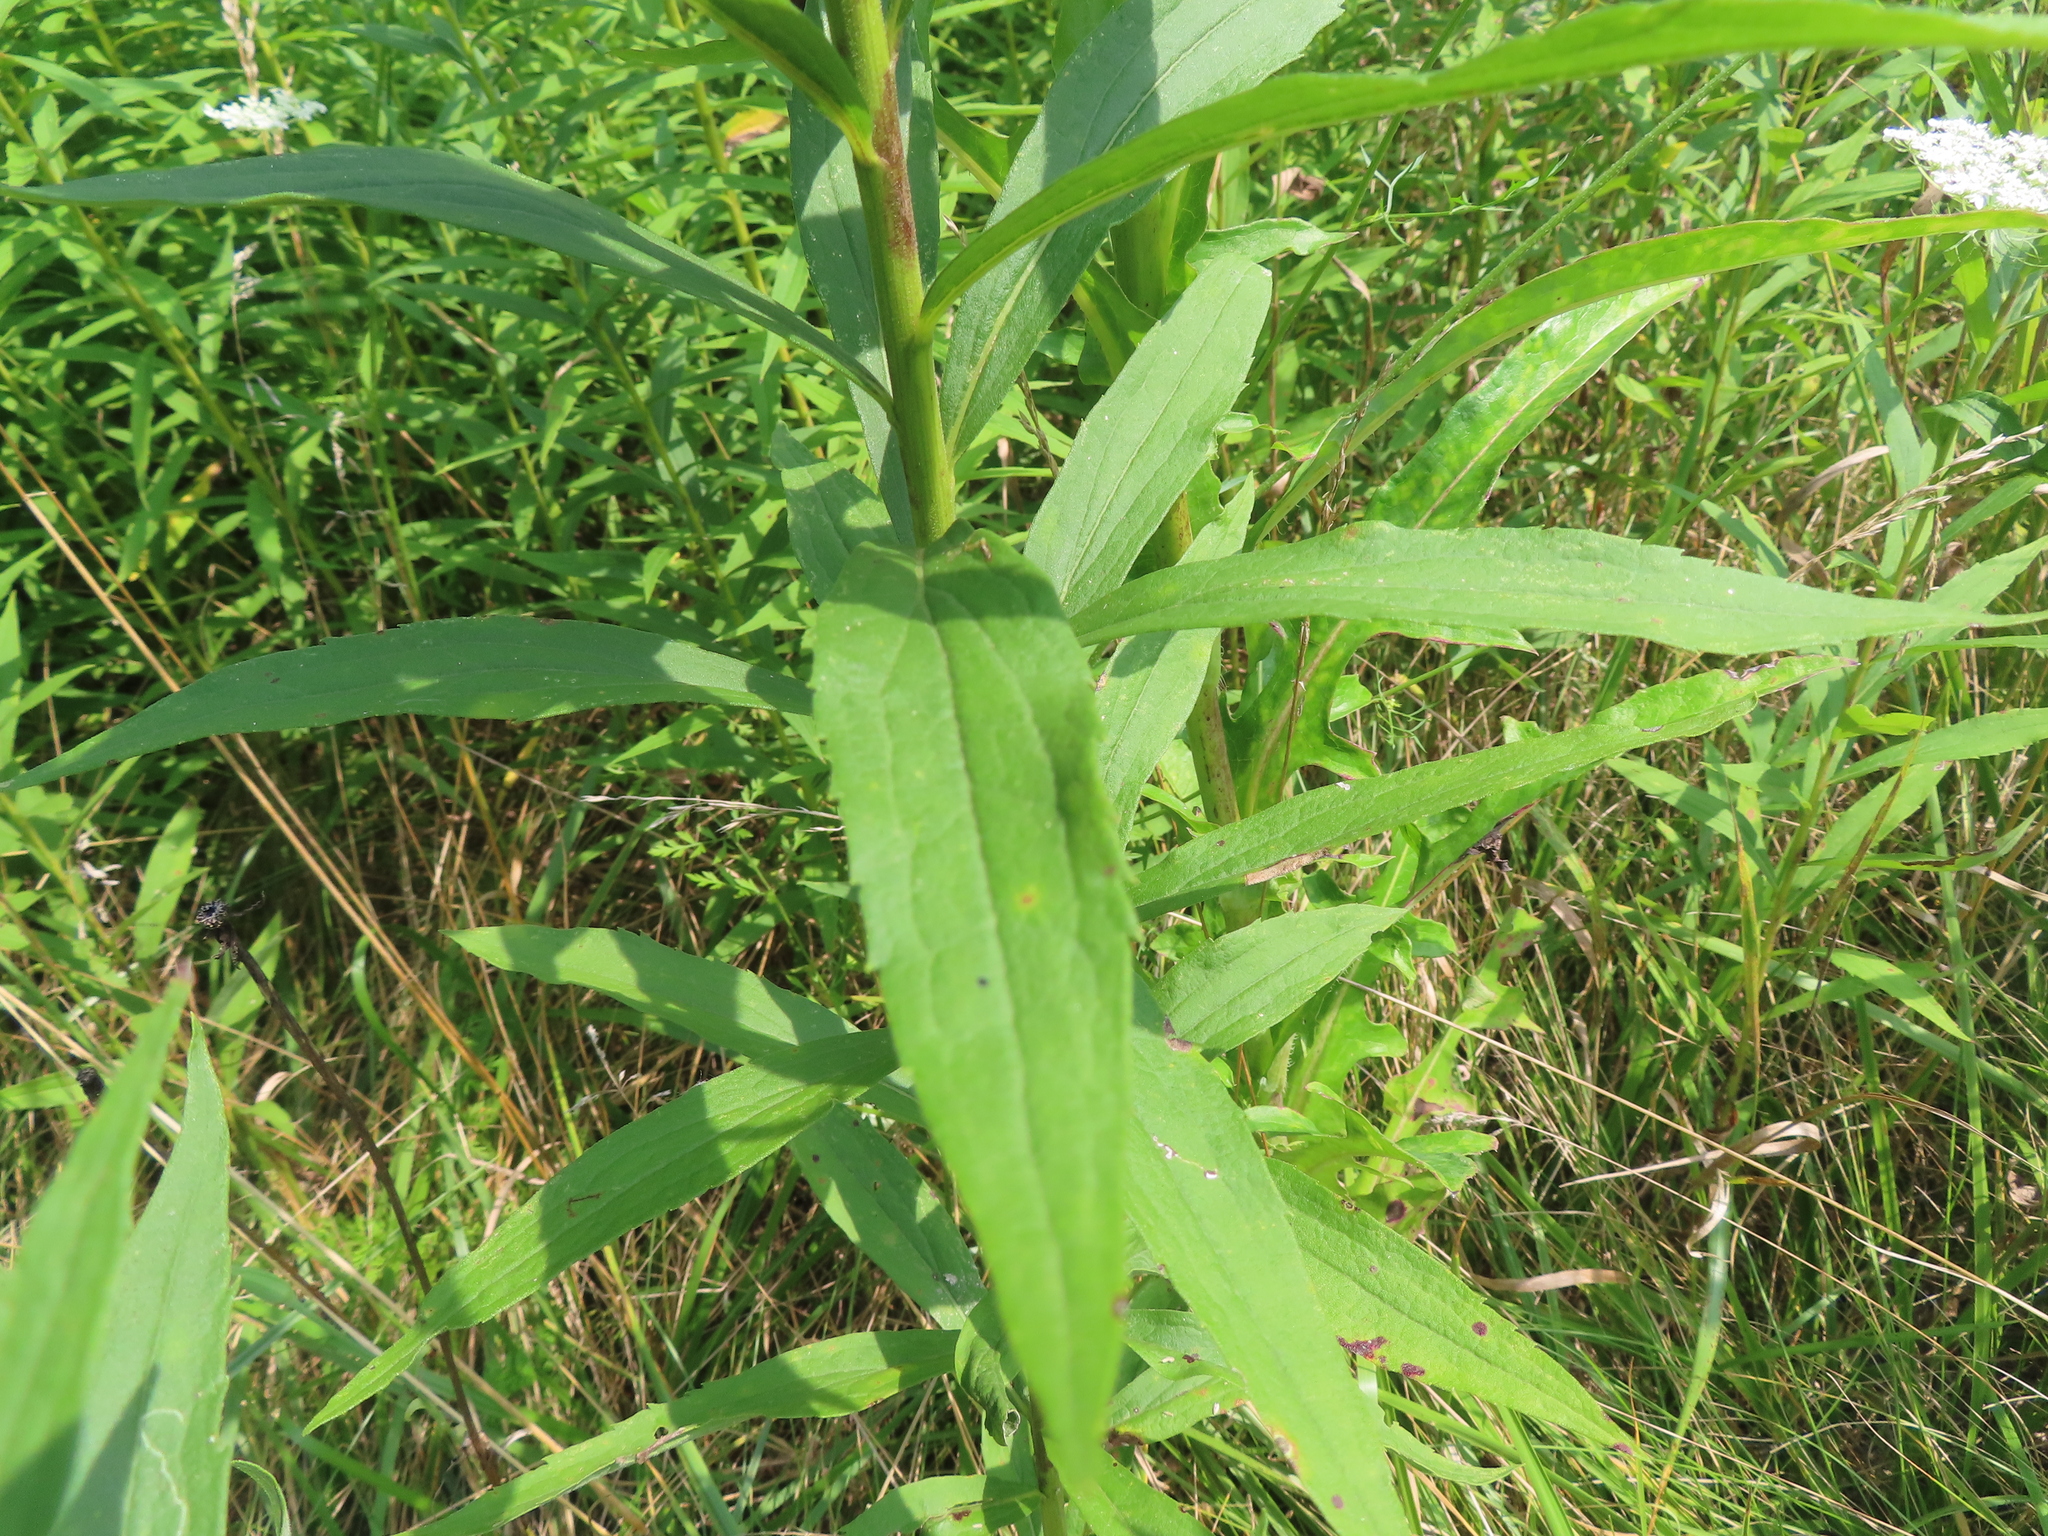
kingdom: Plantae
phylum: Tracheophyta
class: Magnoliopsida
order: Asterales
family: Asteraceae
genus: Lactuca
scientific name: Lactuca canadensis
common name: Canada lettuce
